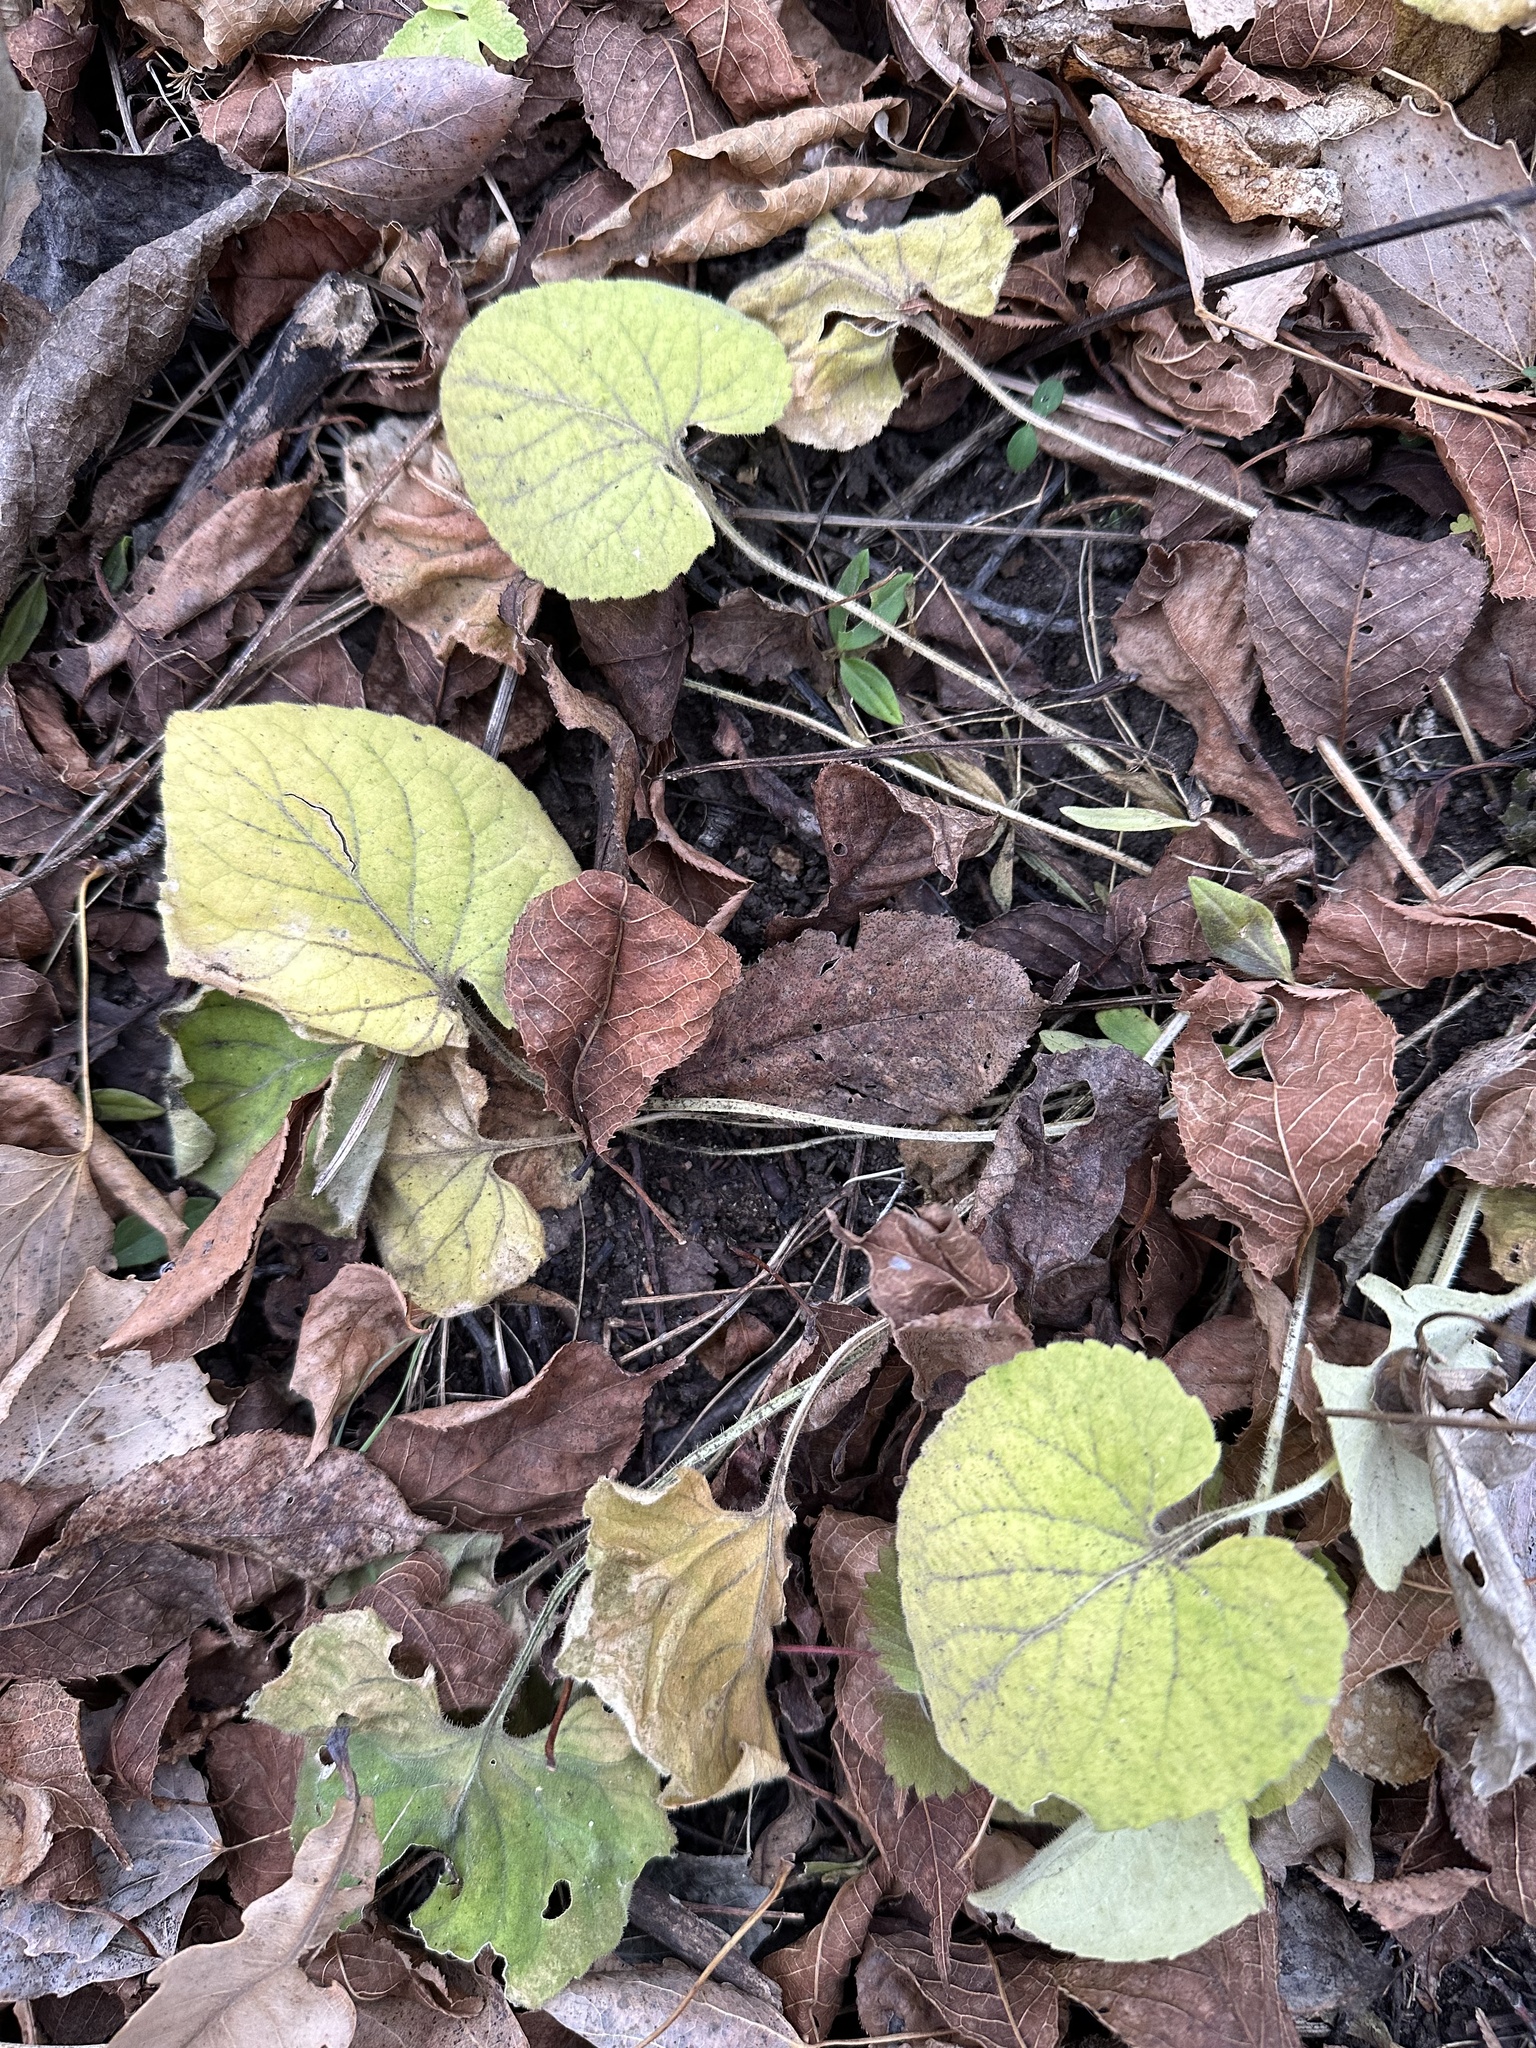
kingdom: Plantae
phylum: Tracheophyta
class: Magnoliopsida
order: Malpighiales
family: Violaceae
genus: Viola
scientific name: Viola collina
